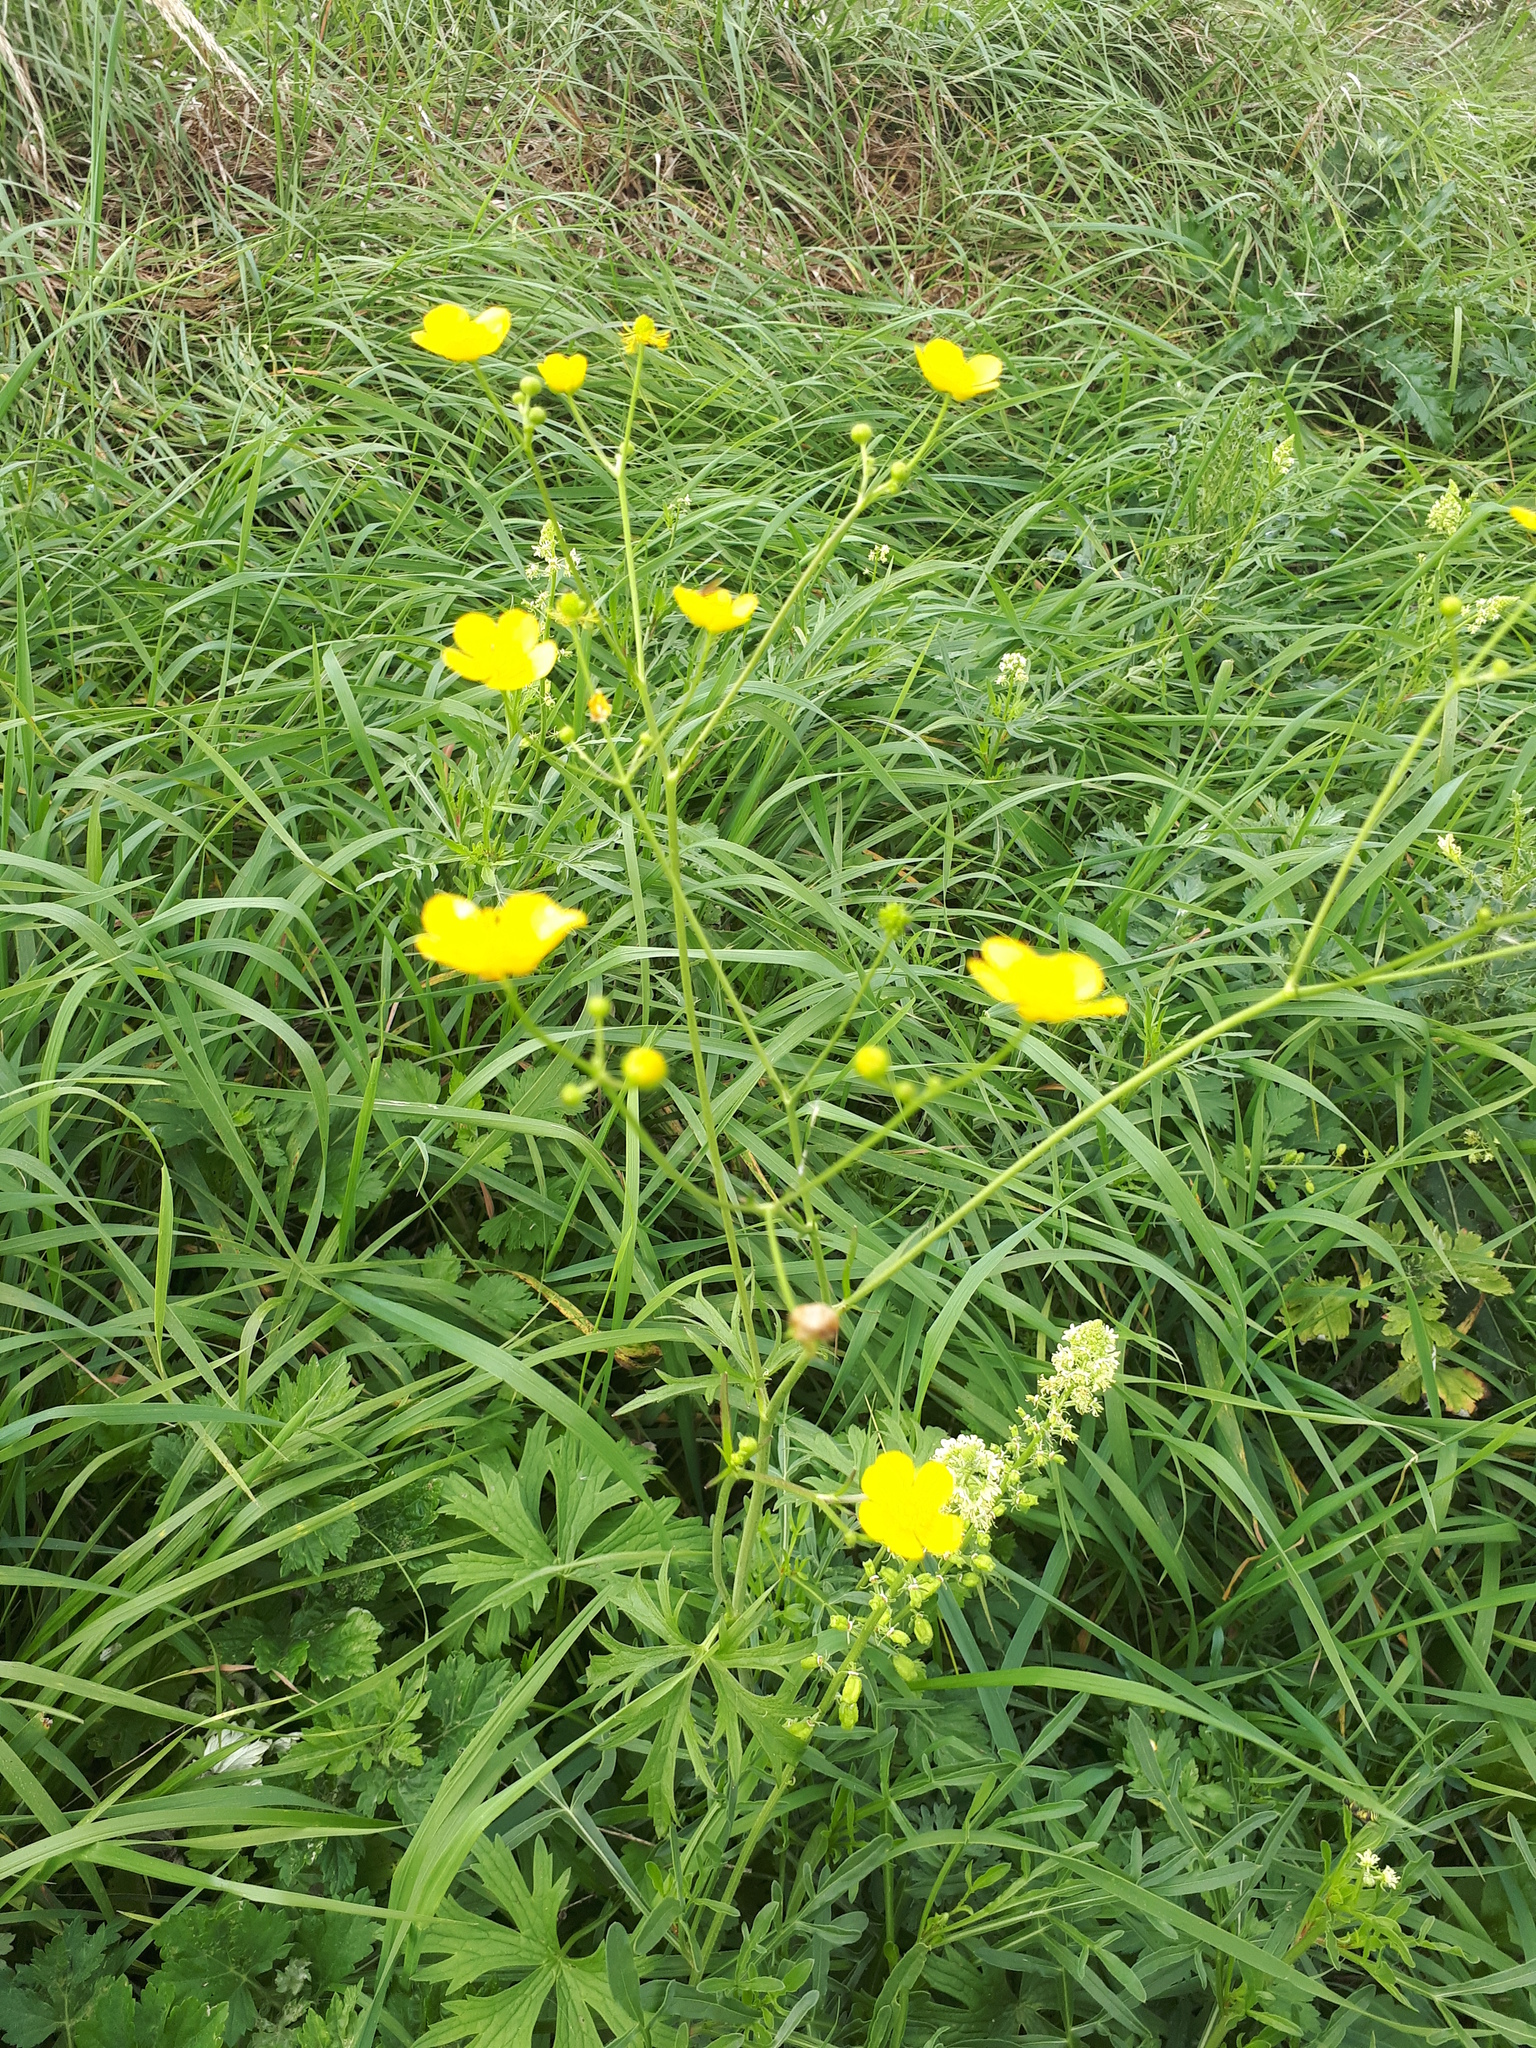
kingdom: Plantae
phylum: Tracheophyta
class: Magnoliopsida
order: Ranunculales
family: Ranunculaceae
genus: Ranunculus
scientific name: Ranunculus acris
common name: Meadow buttercup
